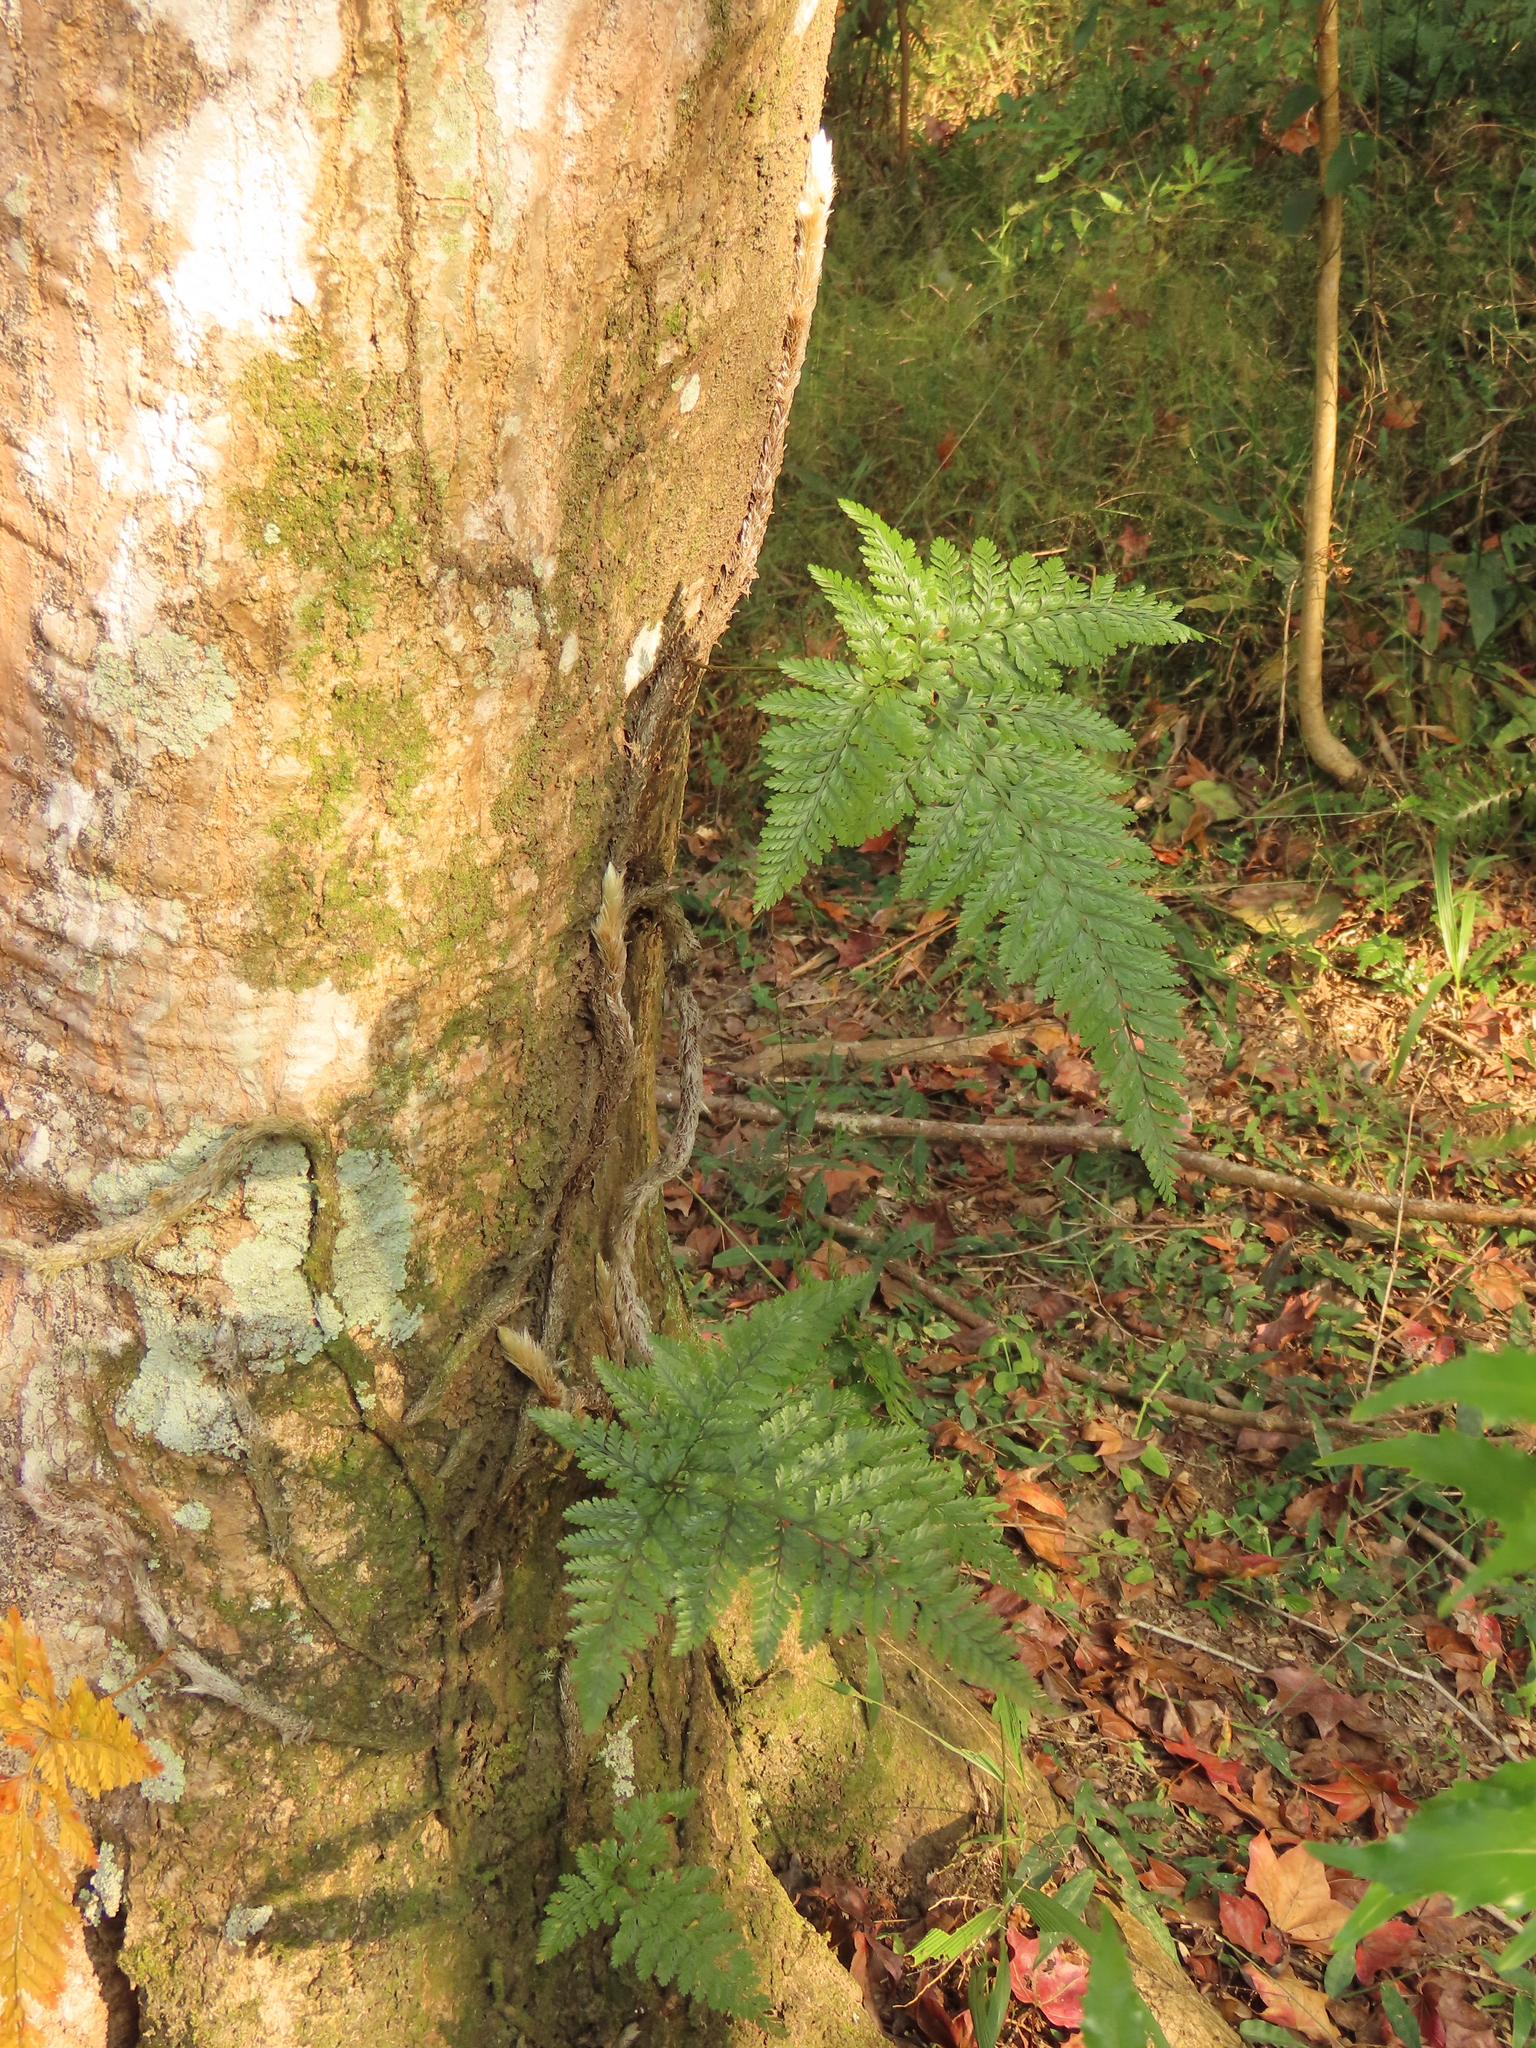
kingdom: Plantae
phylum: Tracheophyta
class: Polypodiopsida
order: Polypodiales
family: Davalliaceae
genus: Davallia
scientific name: Davallia griffithiana
